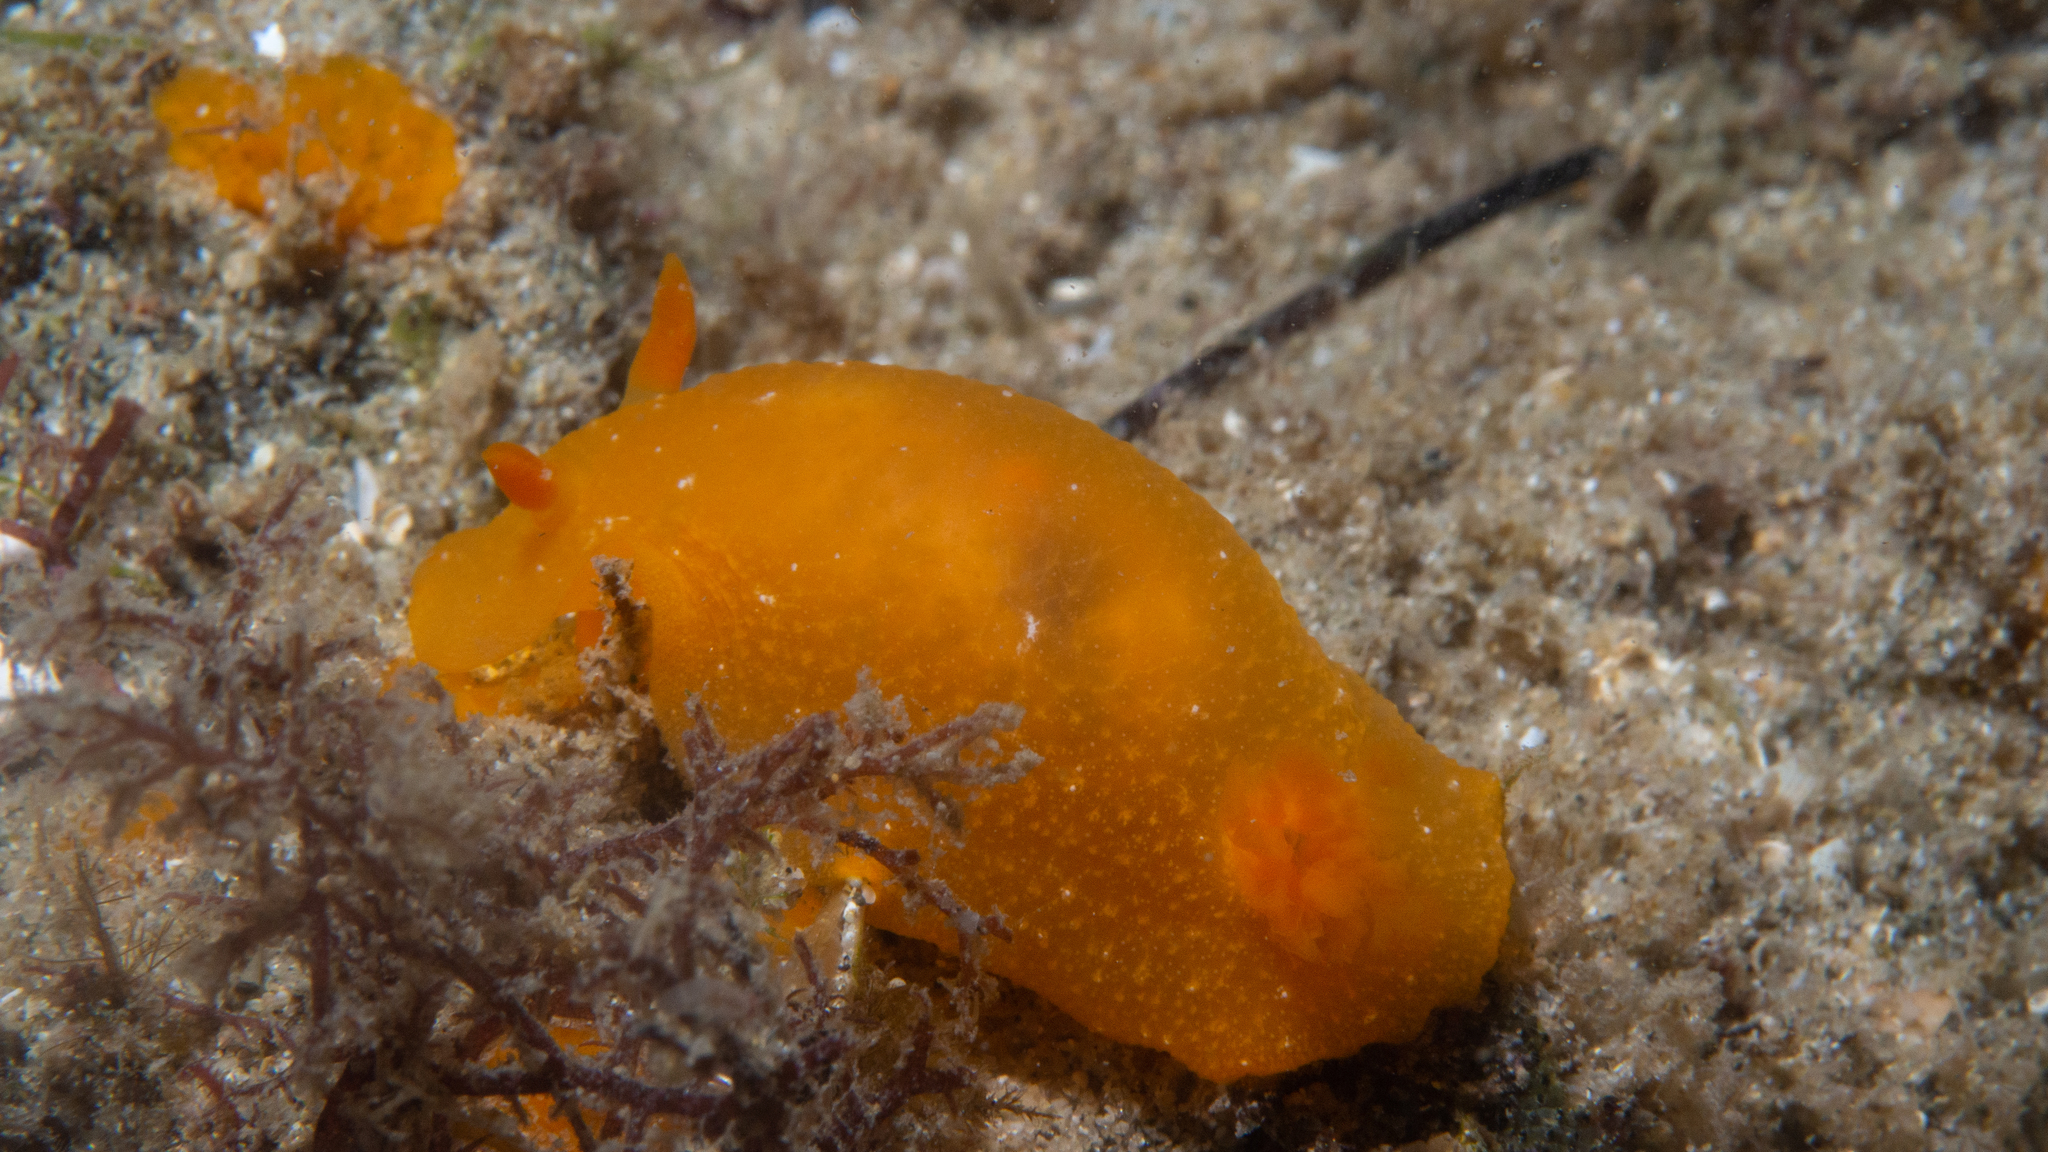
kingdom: Animalia
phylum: Mollusca
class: Gastropoda
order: Nudibranchia
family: Dendrodorididae
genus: Doriopsilla
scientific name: Doriopsilla carneola
